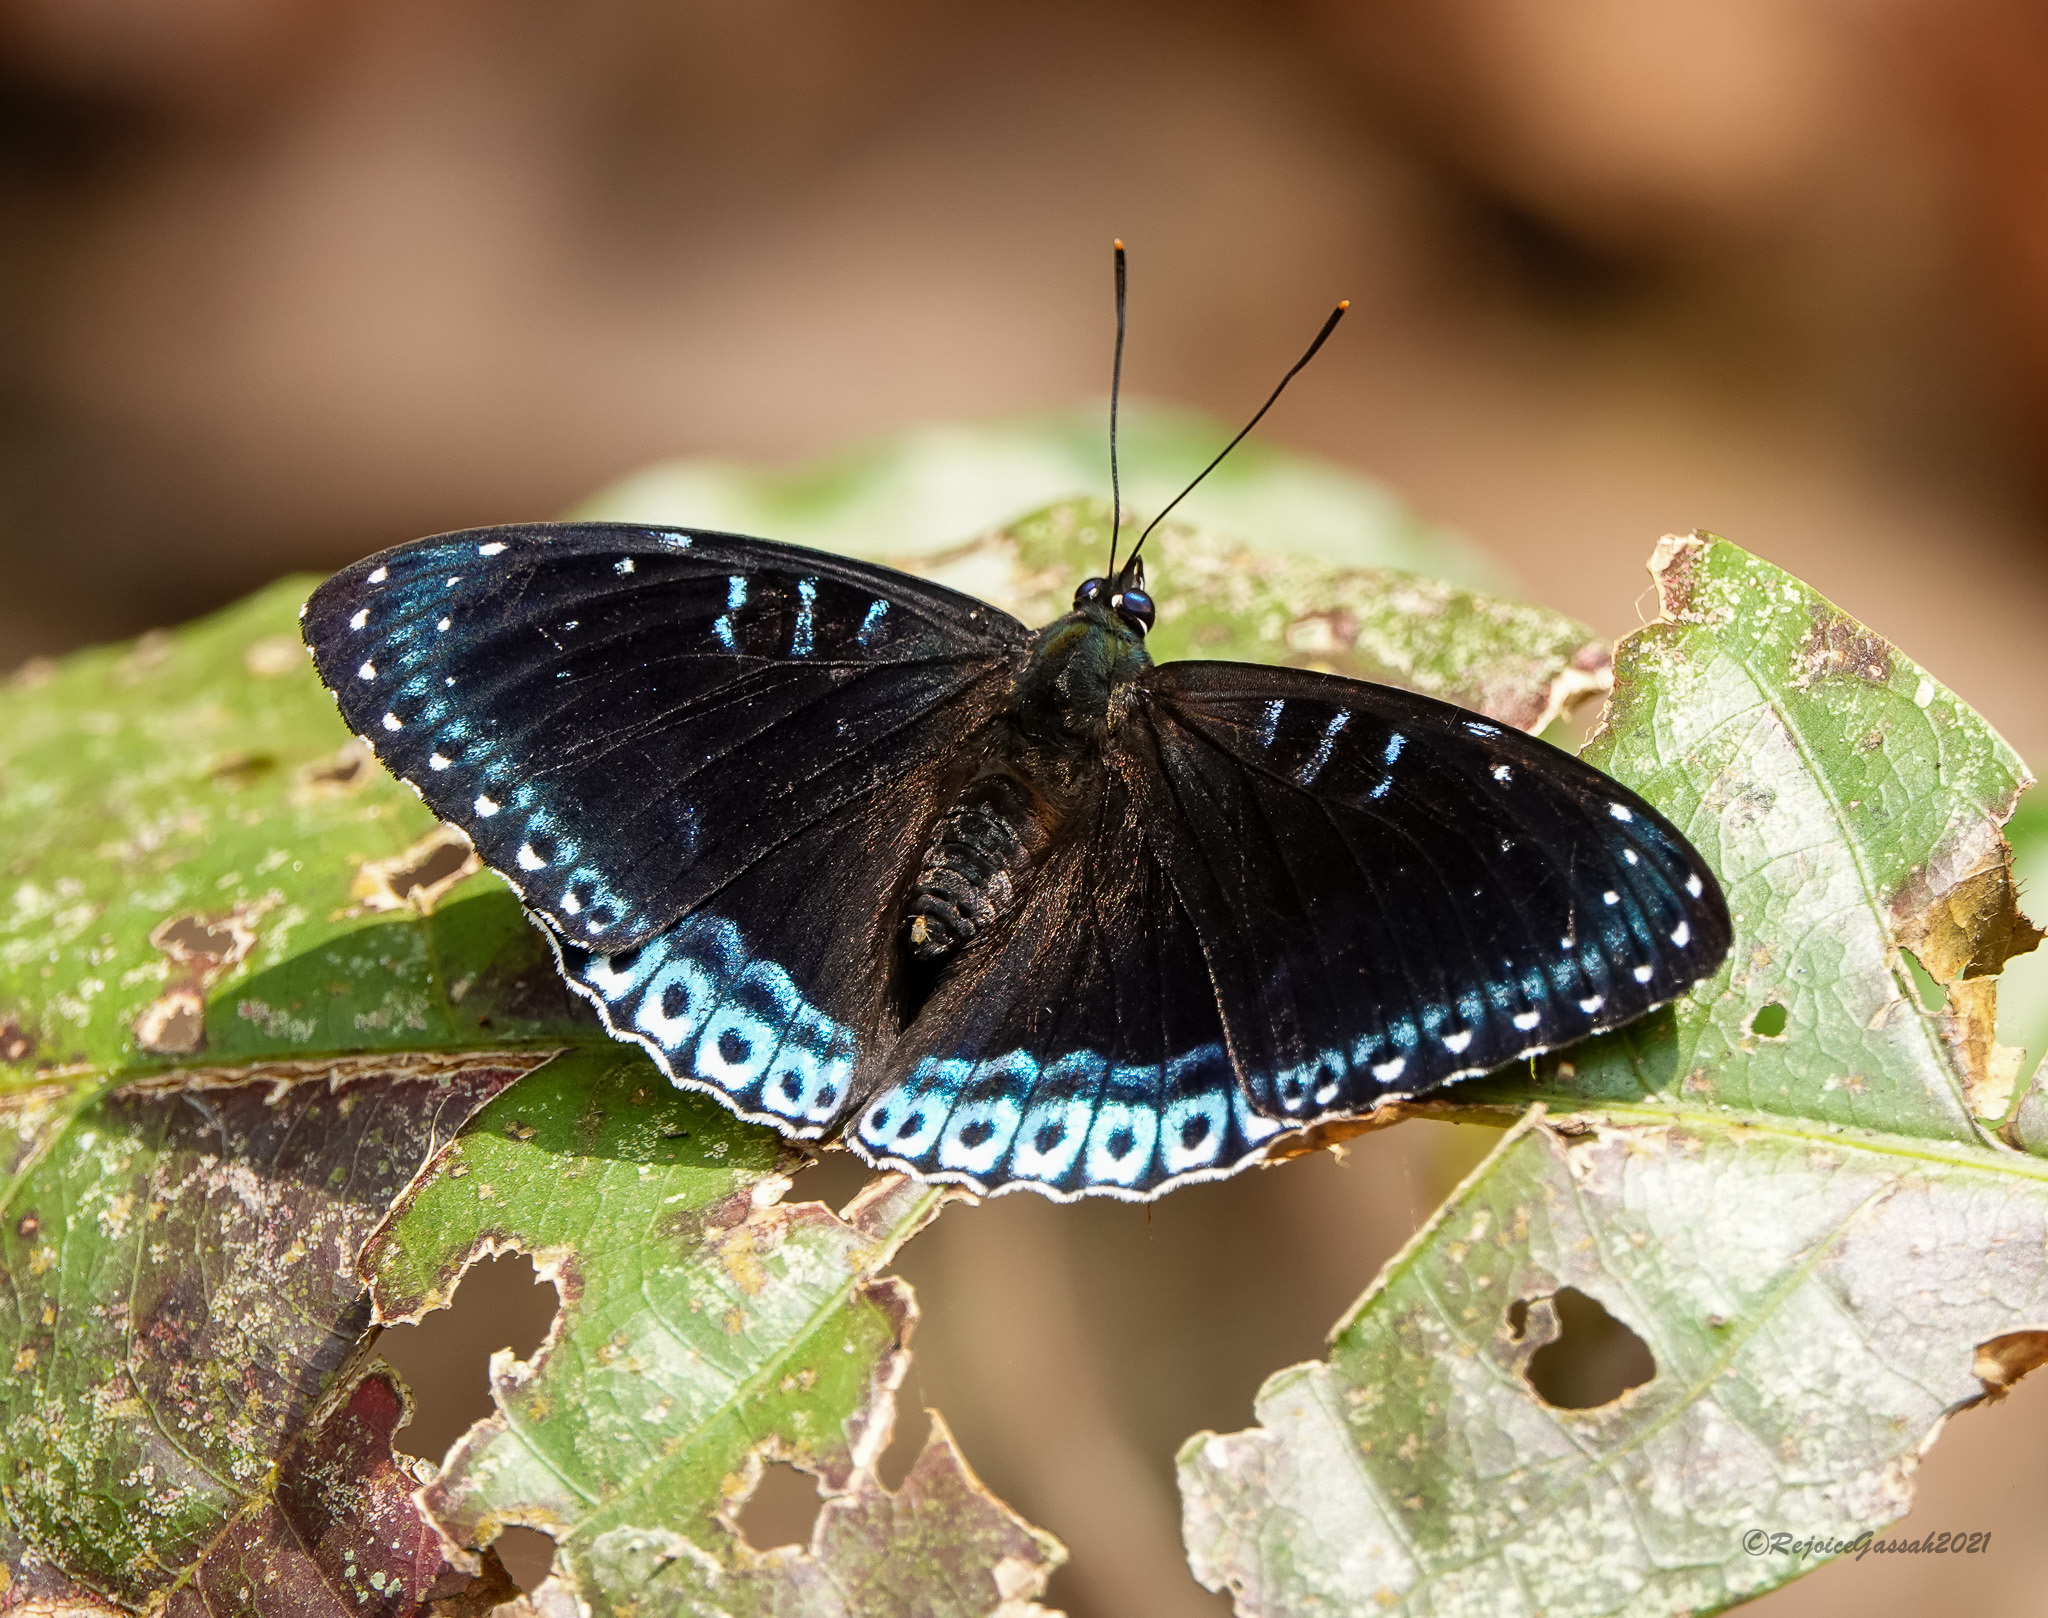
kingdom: Animalia
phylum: Arthropoda
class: Insecta
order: Lepidoptera
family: Nymphalidae
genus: Stibochiona
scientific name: Stibochiona nicea
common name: Popinjay
